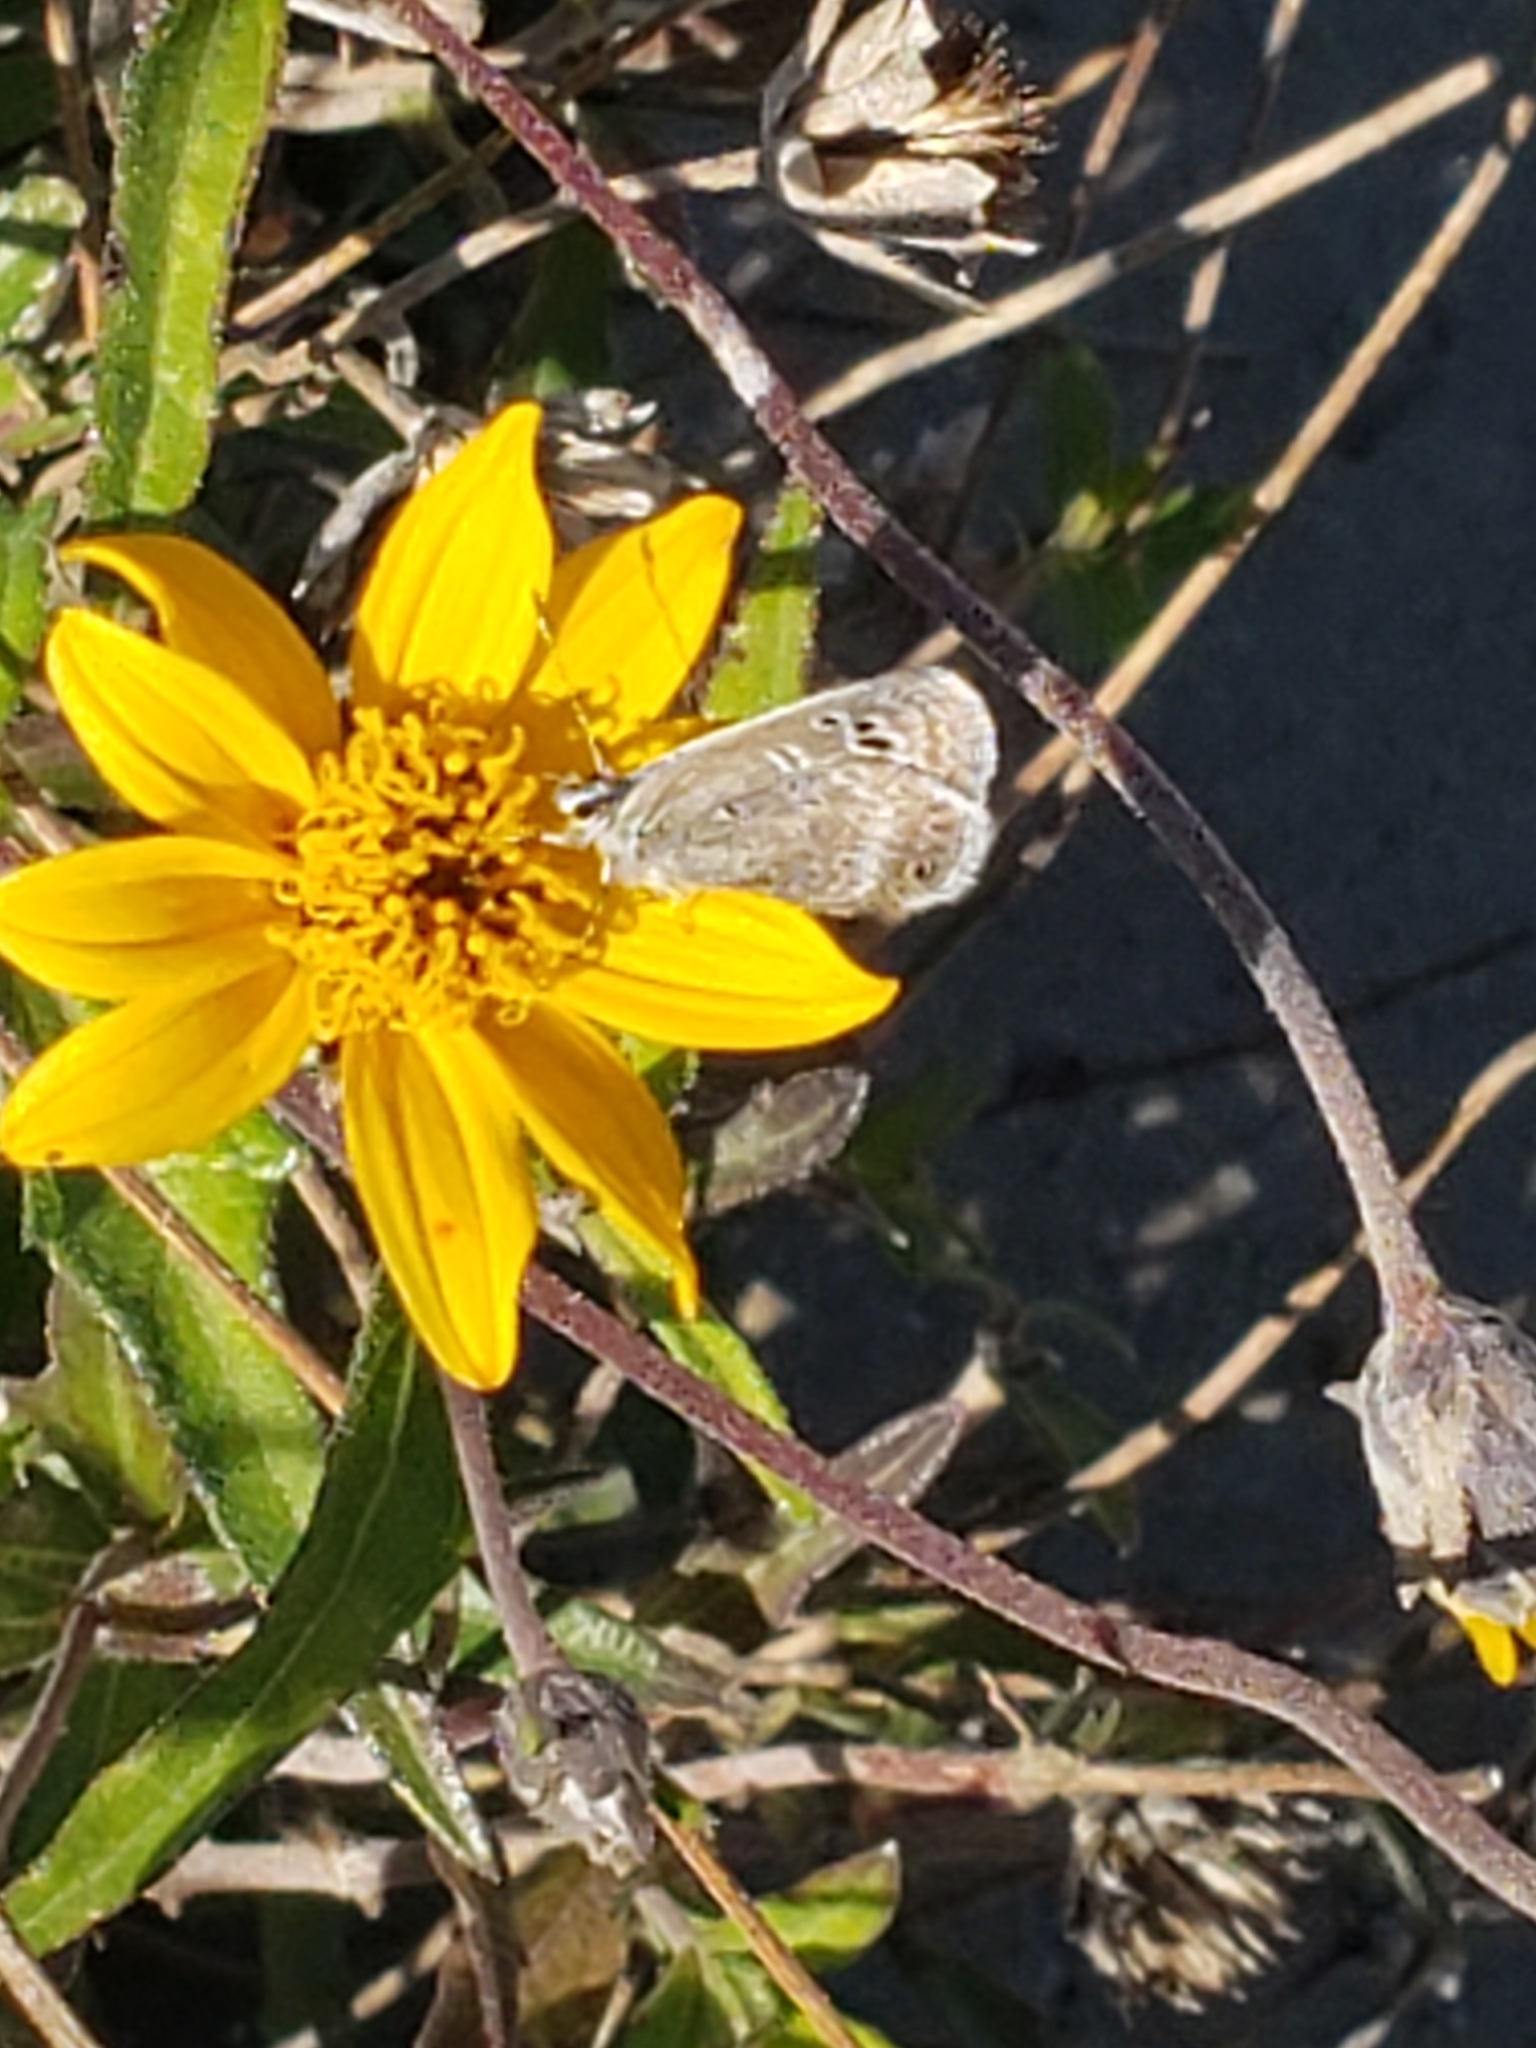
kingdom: Animalia
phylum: Arthropoda
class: Insecta
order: Lepidoptera
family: Lycaenidae
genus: Echinargus
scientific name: Echinargus isola
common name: Reakirt's blue
